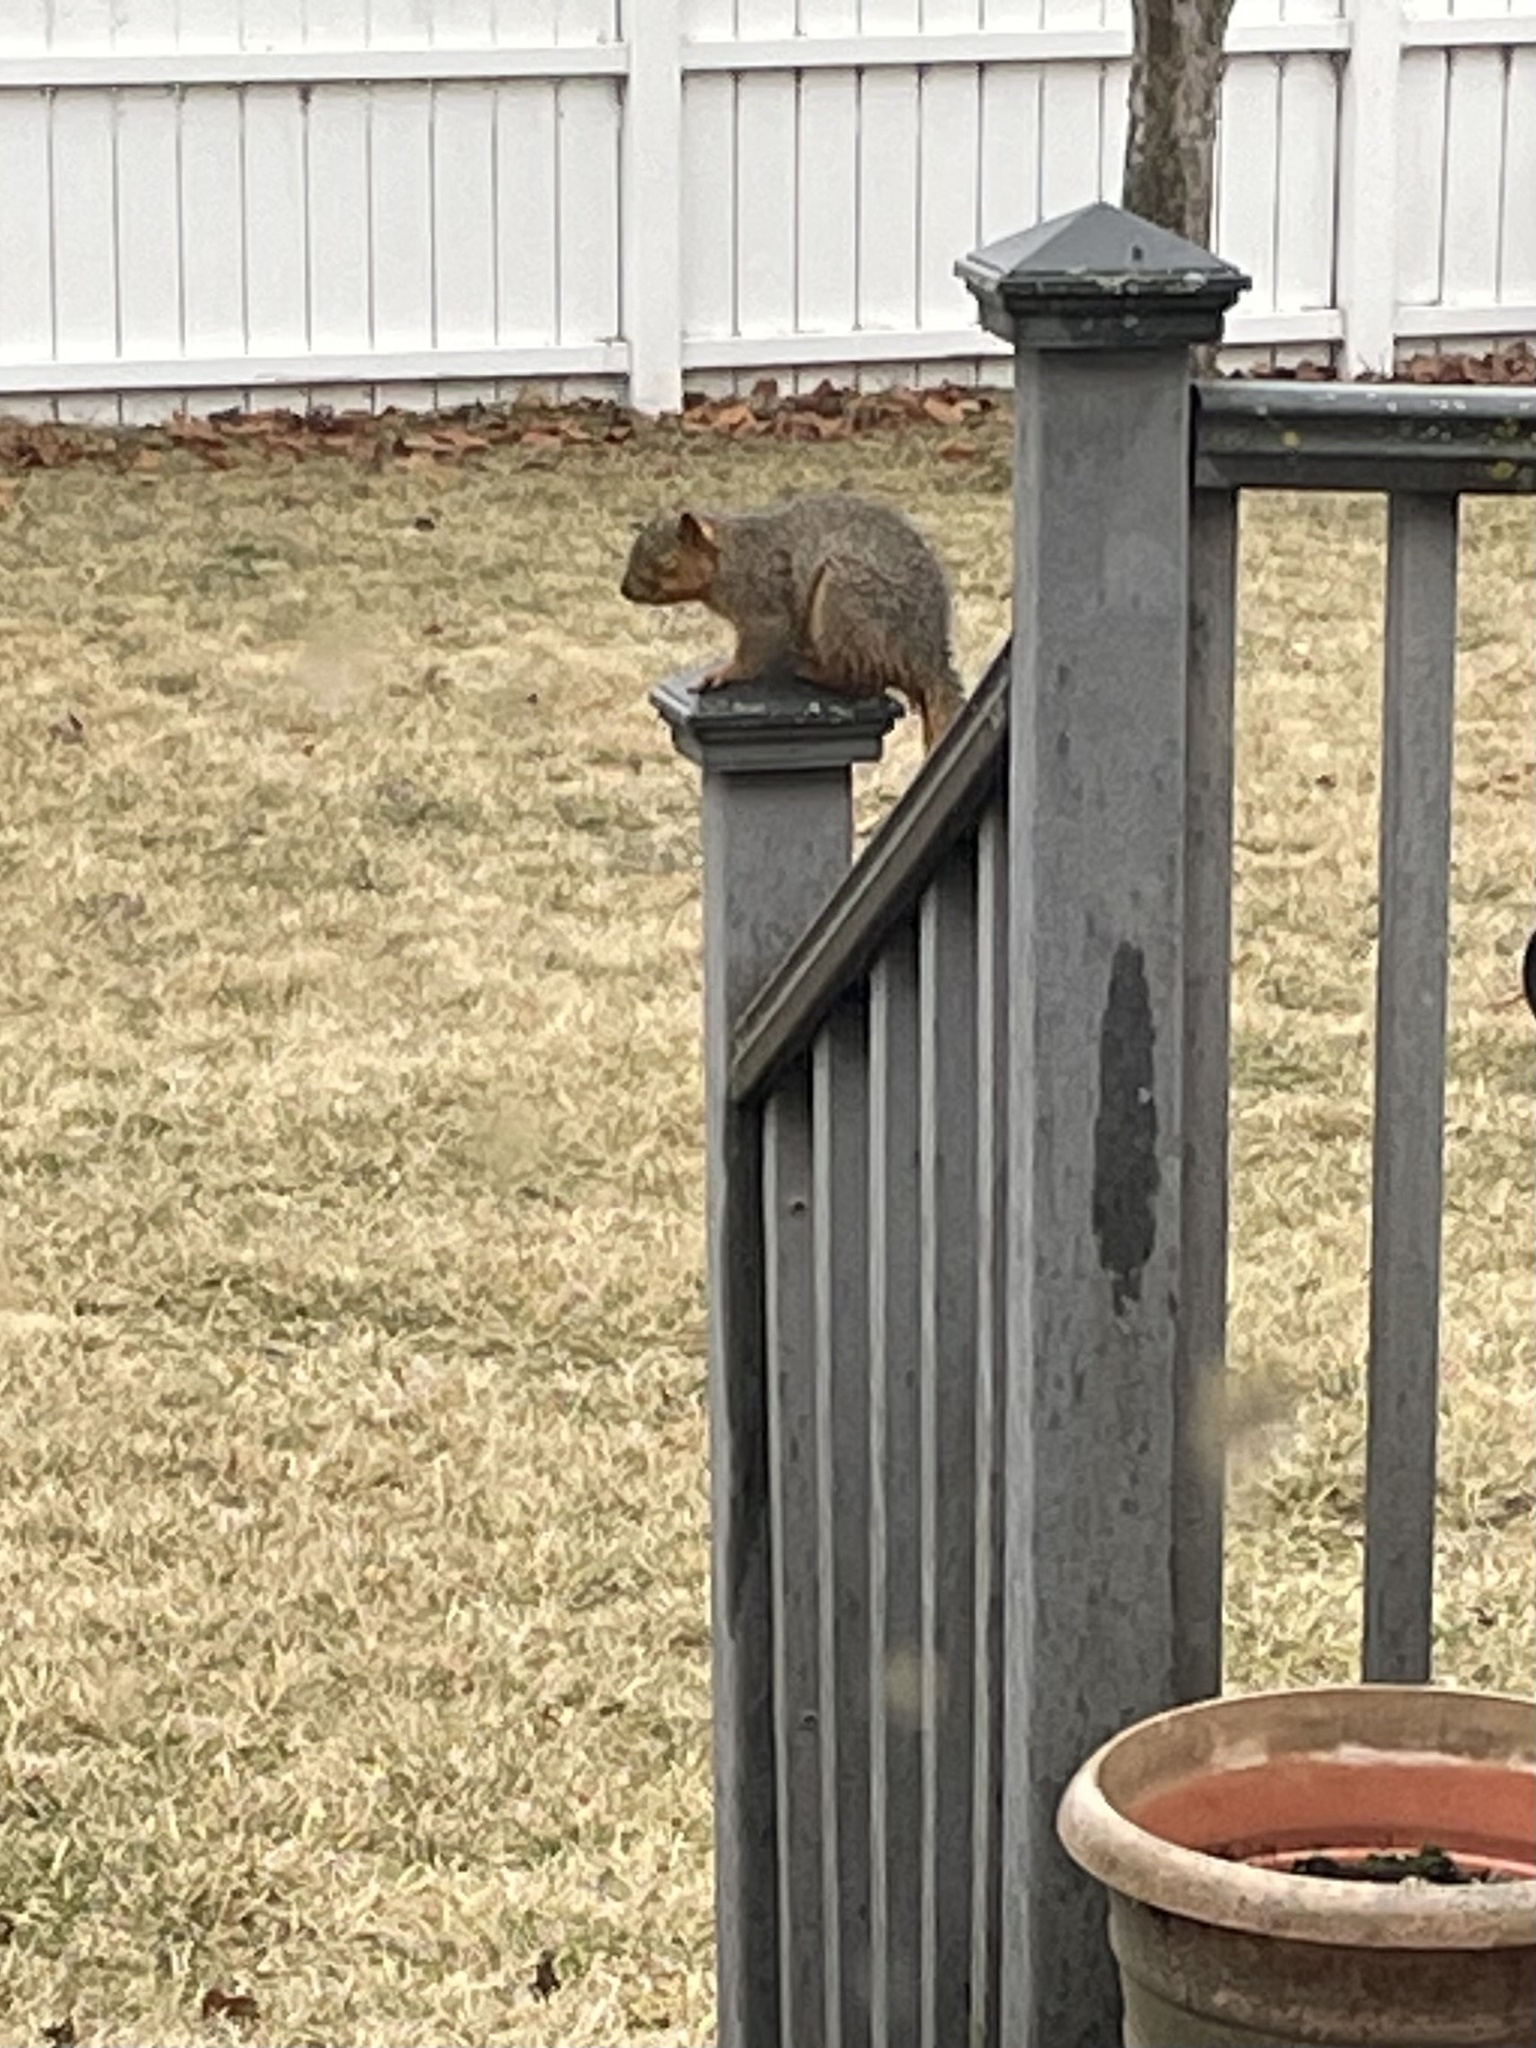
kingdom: Animalia
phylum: Chordata
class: Mammalia
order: Rodentia
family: Sciuridae
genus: Sciurus
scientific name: Sciurus niger
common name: Fox squirrel
